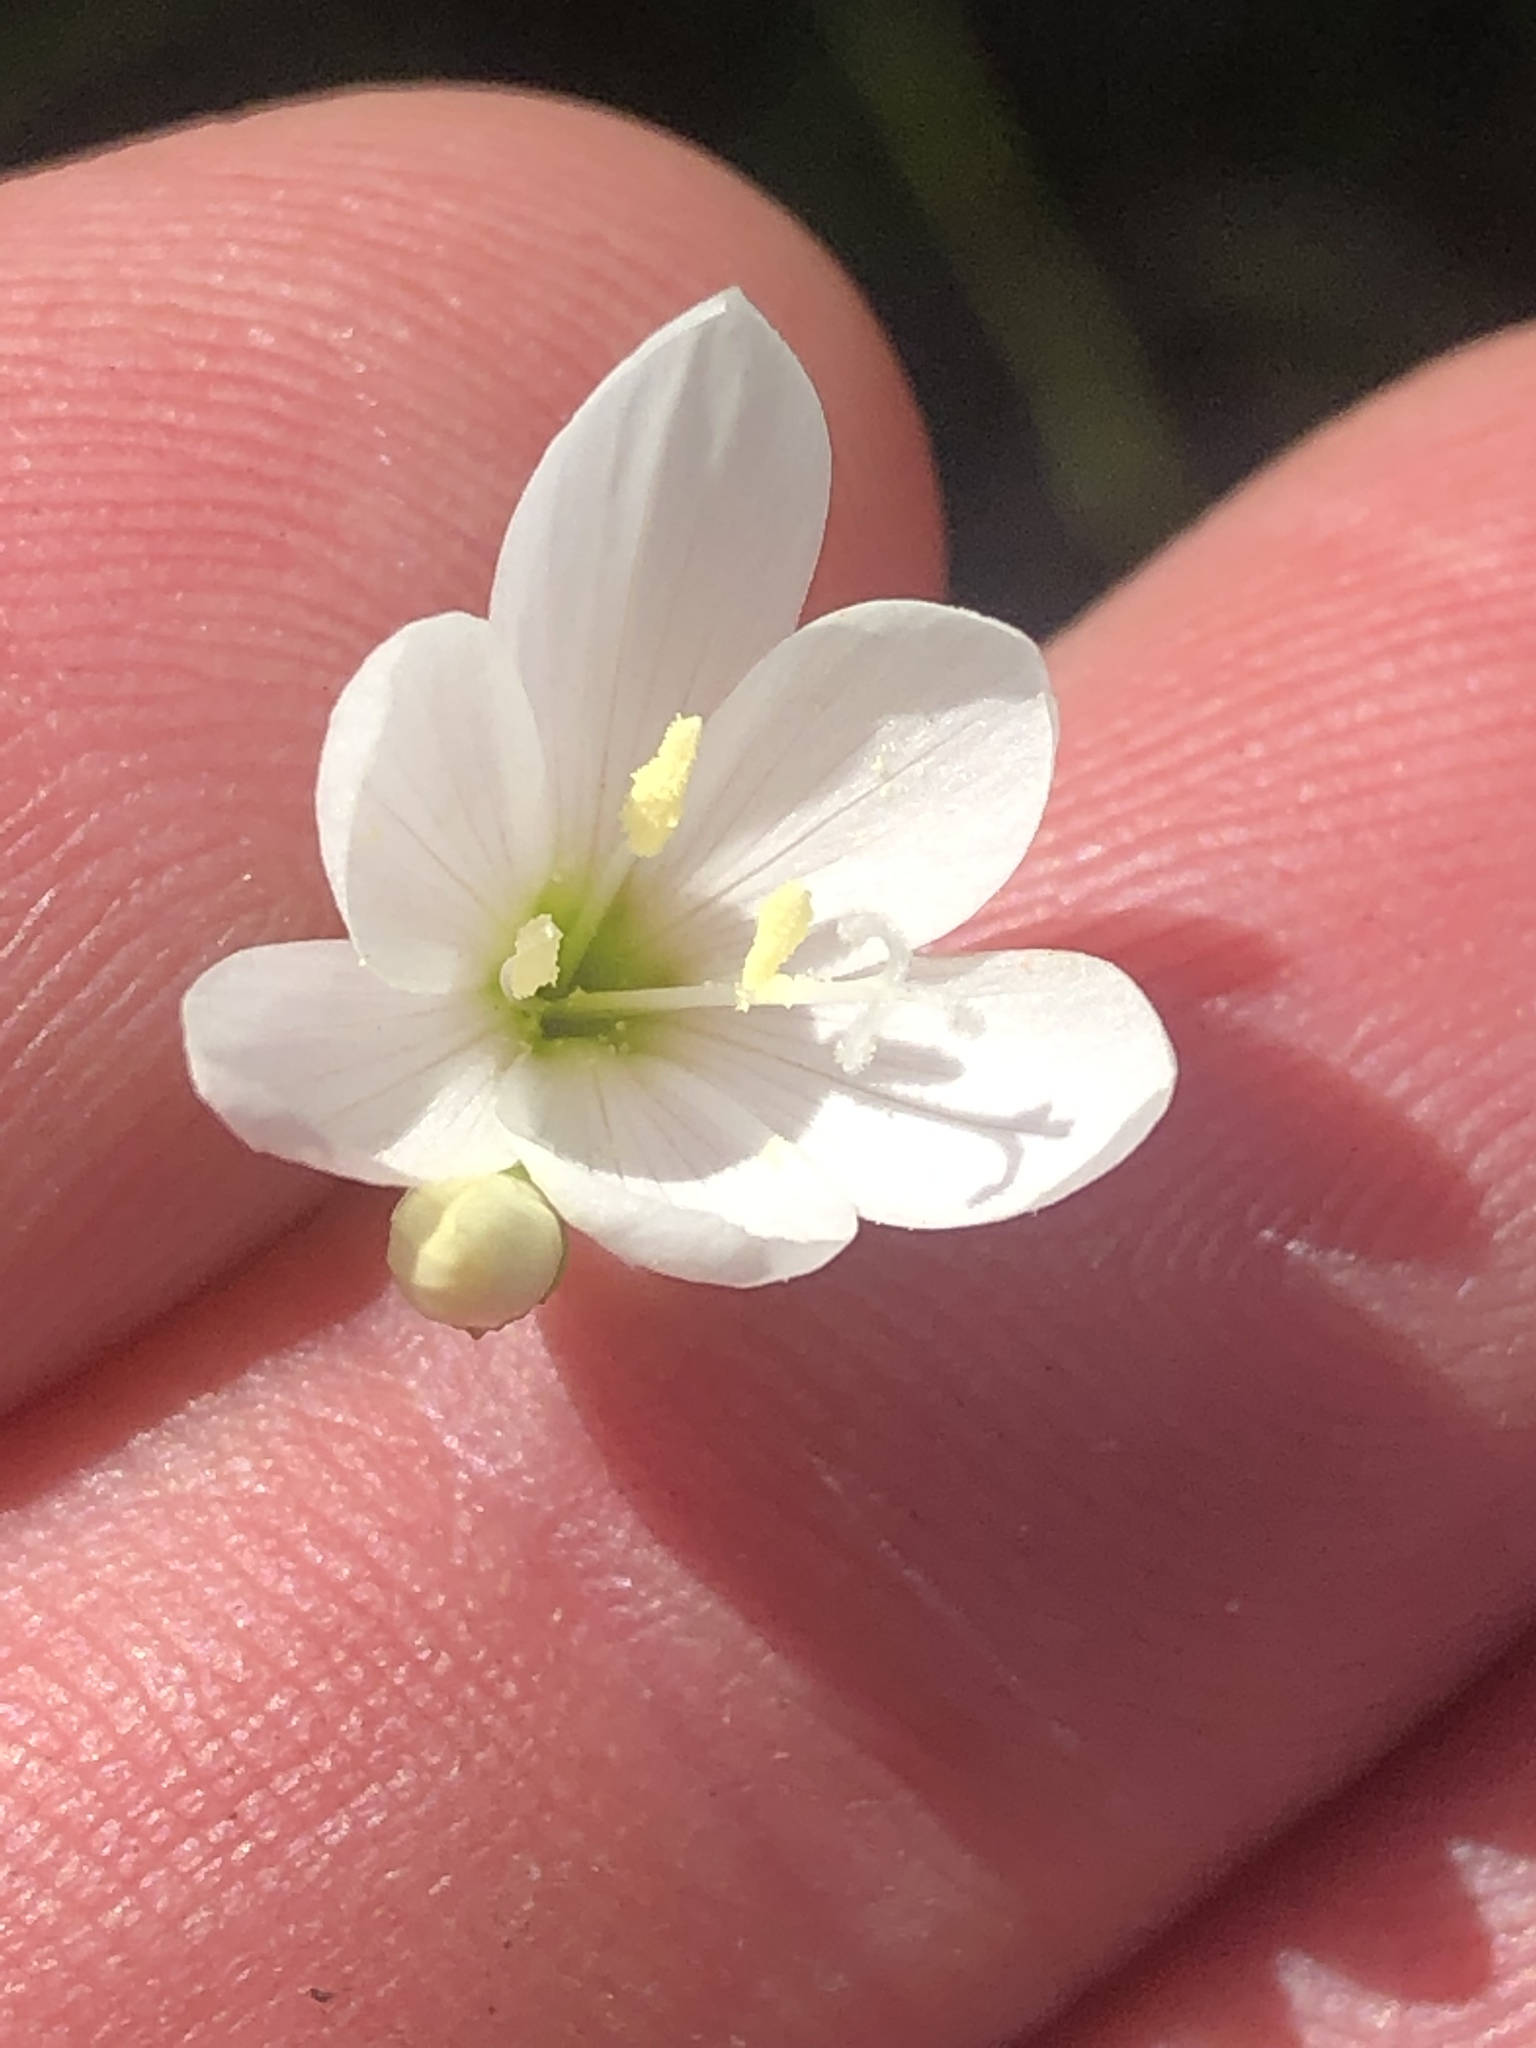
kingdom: Plantae
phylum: Tracheophyta
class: Liliopsida
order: Asparagales
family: Iridaceae
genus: Geissorhiza
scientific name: Geissorhiza inconspicua
